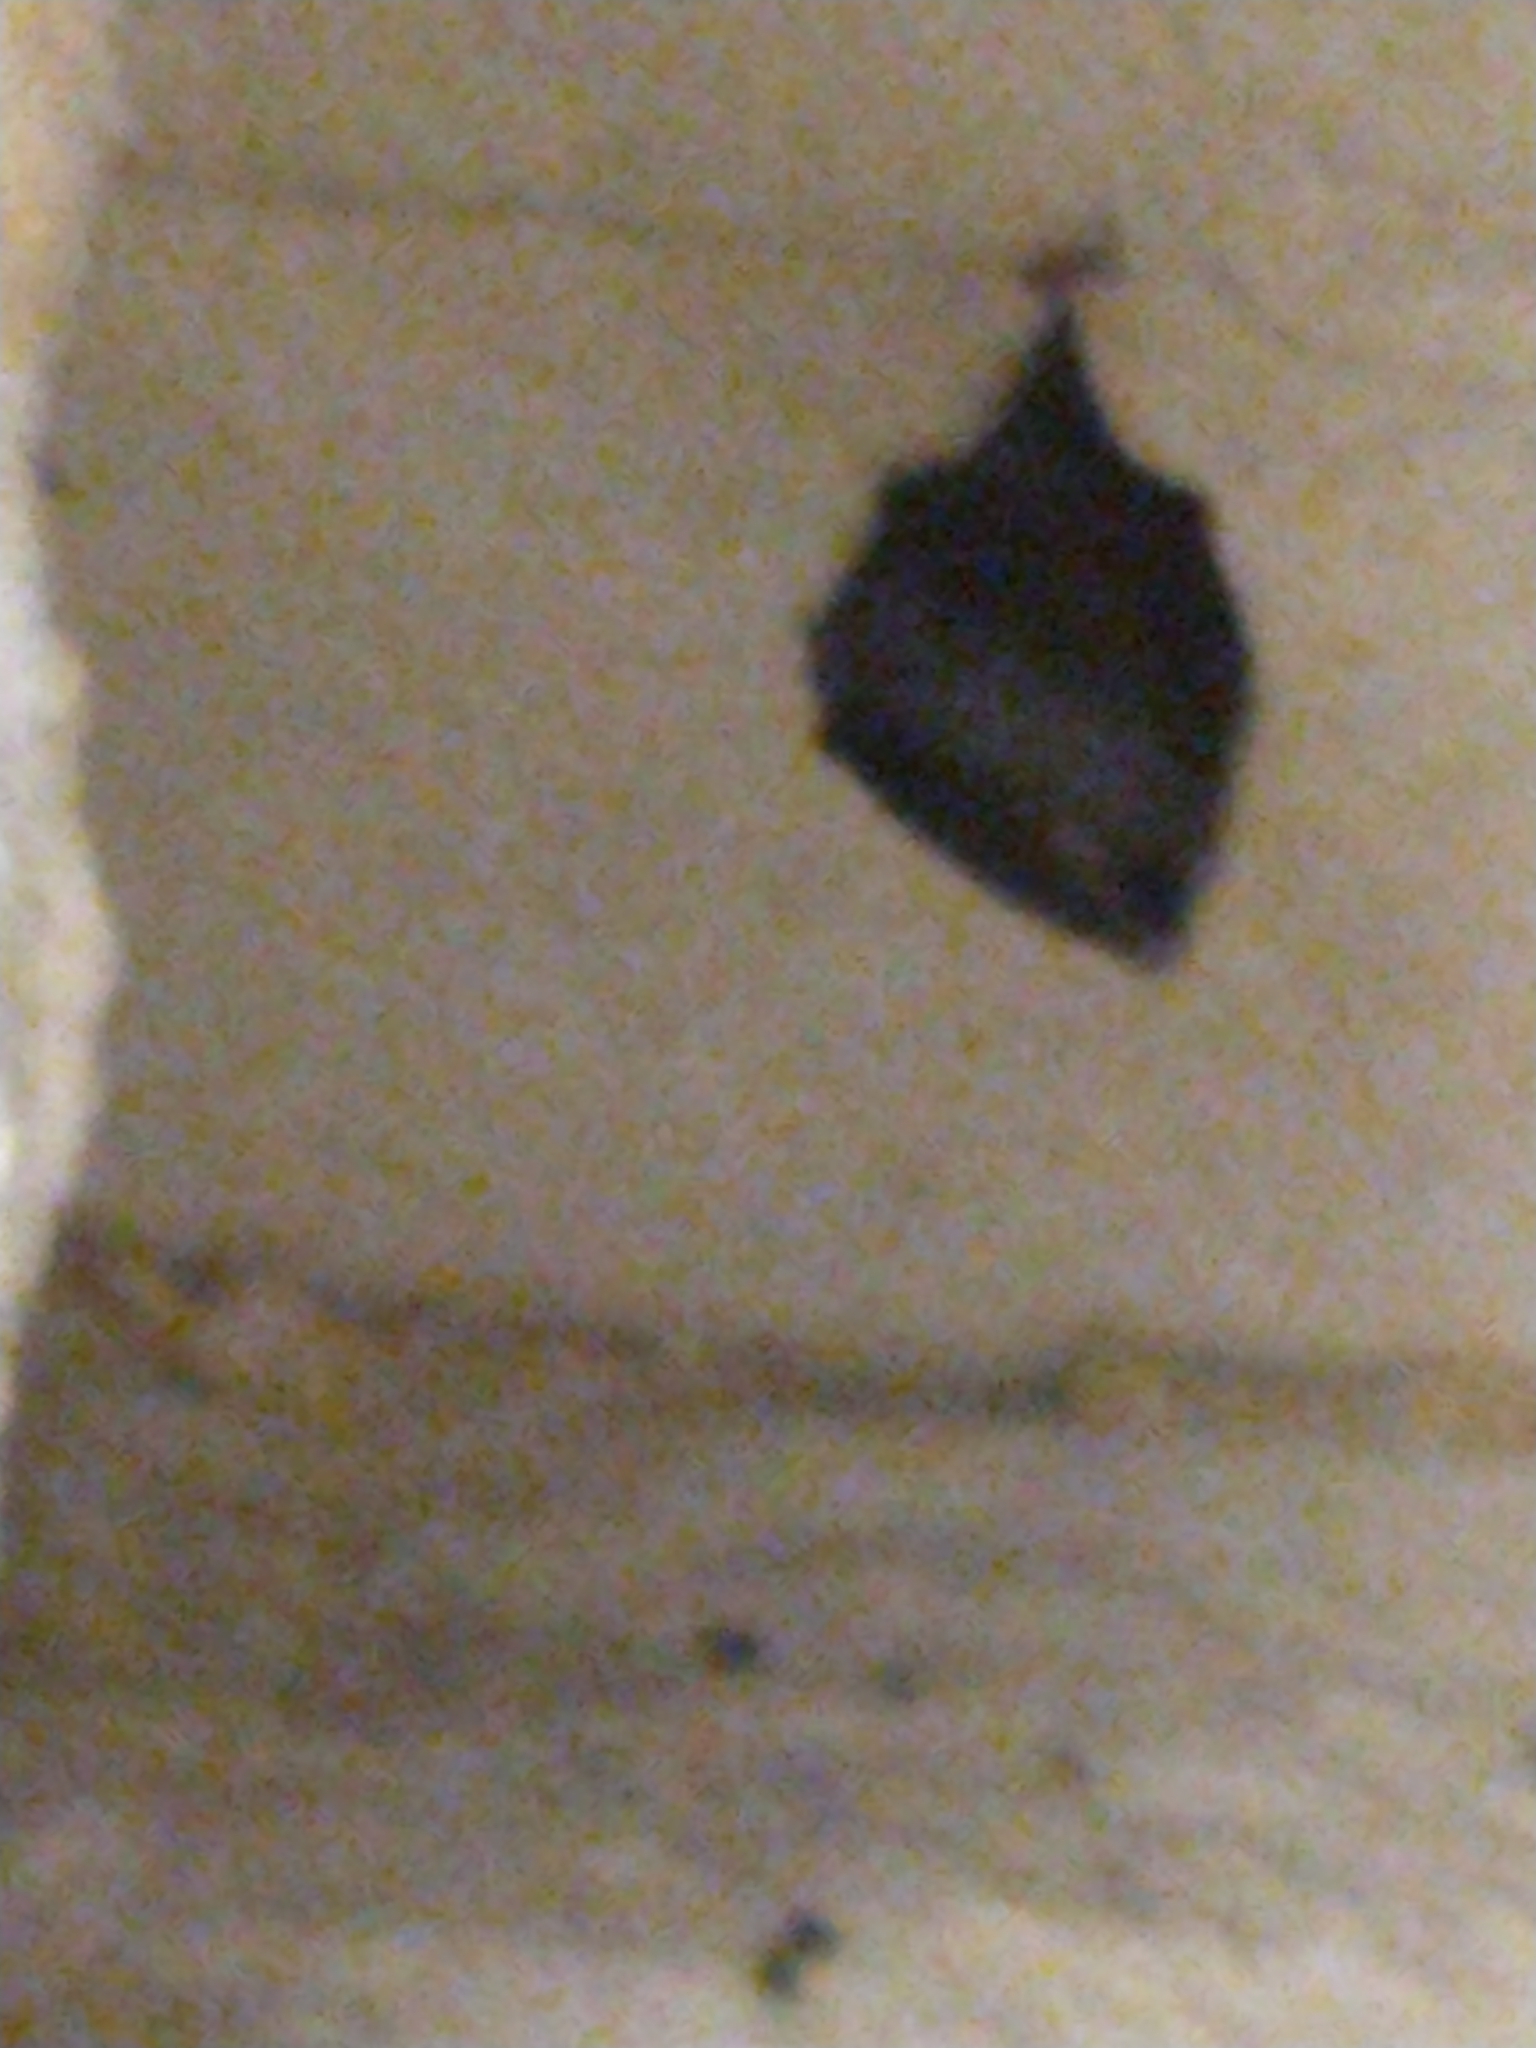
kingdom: Animalia
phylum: Chordata
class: Mammalia
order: Chiroptera
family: Rhinolophidae
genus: Rhinolophus
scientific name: Rhinolophus hipposideros
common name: Lesser horseshoe bat
